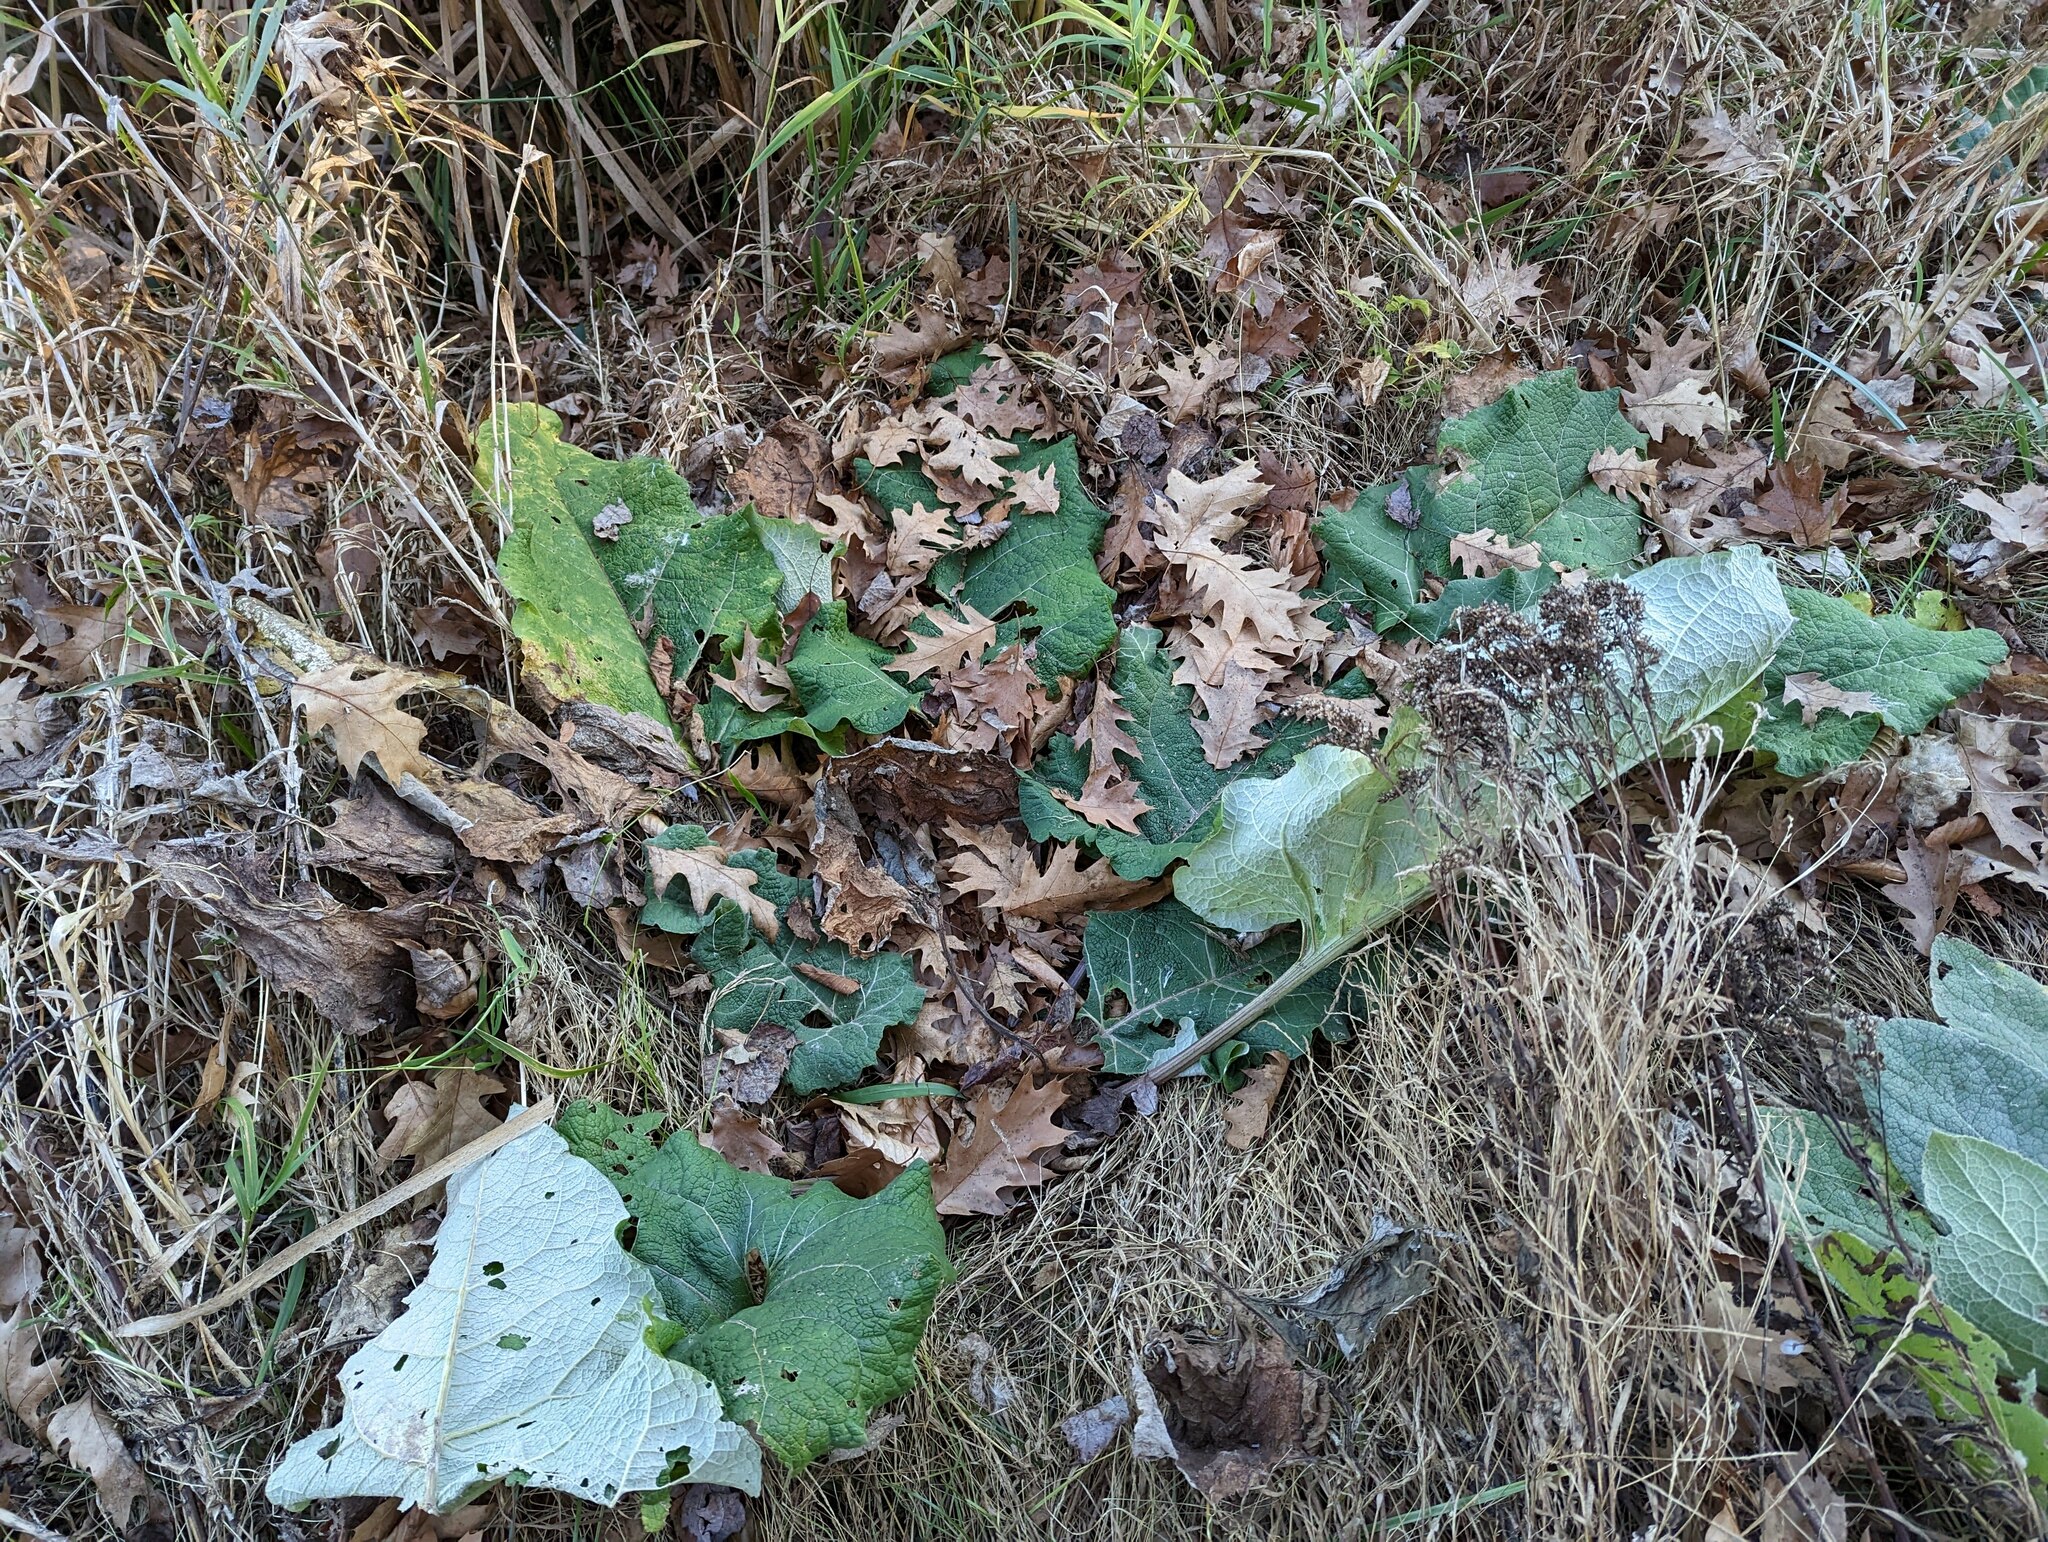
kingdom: Plantae
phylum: Tracheophyta
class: Magnoliopsida
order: Asterales
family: Asteraceae
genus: Arctium
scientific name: Arctium
